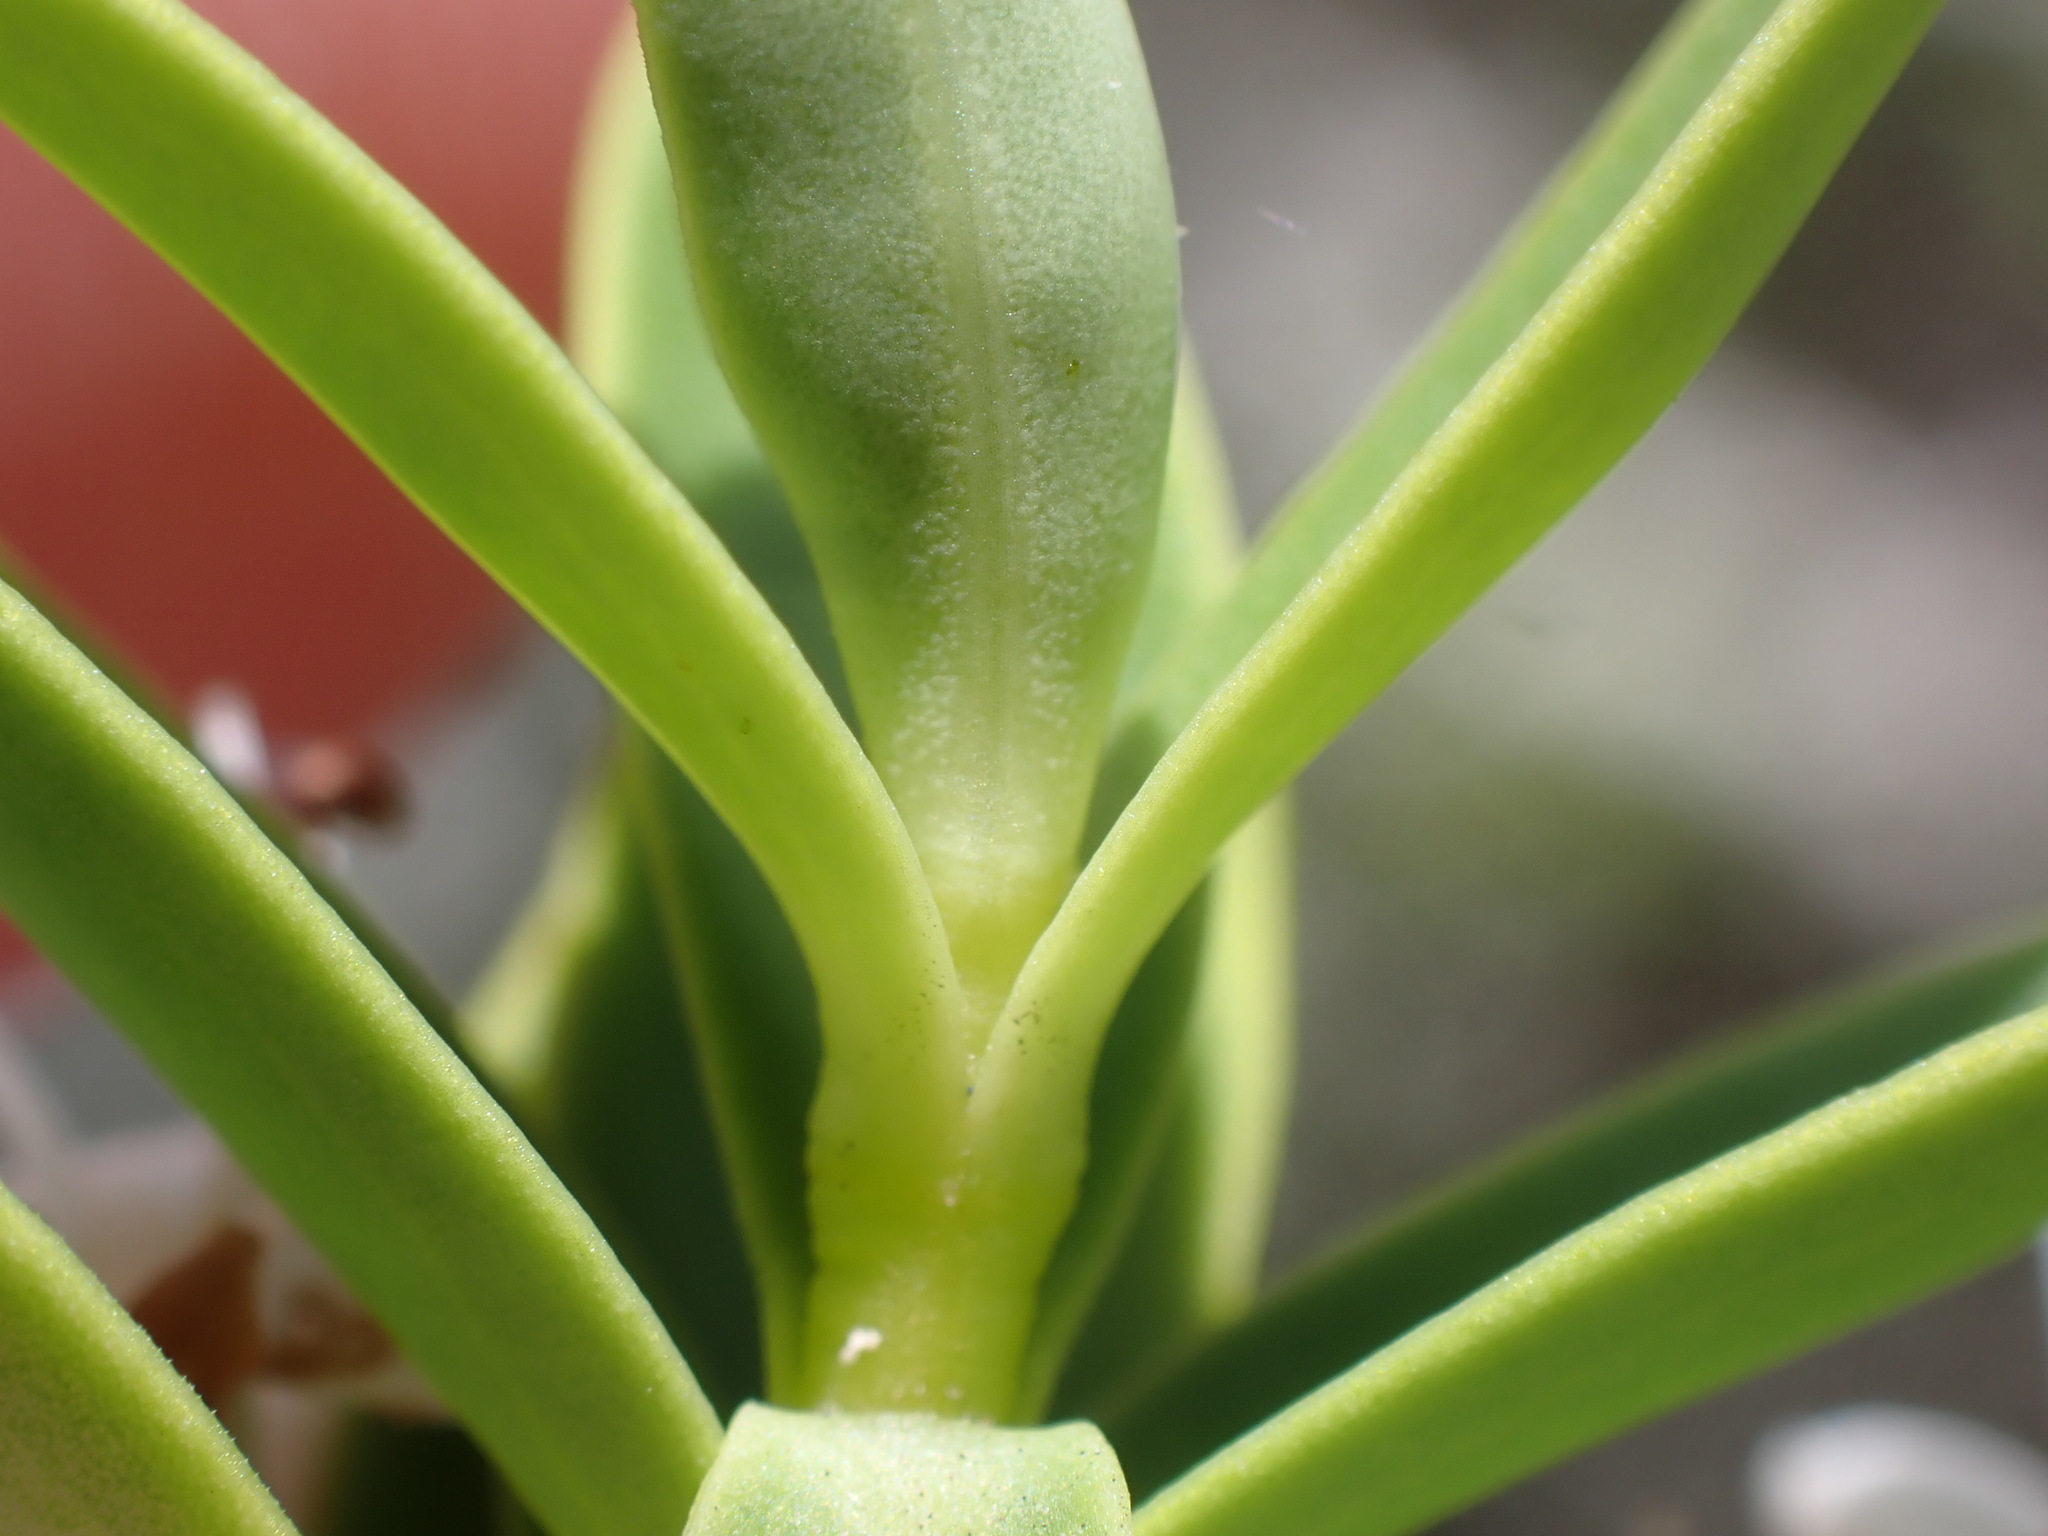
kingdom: Plantae
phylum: Tracheophyta
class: Magnoliopsida
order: Lamiales
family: Plantaginaceae
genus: Veronica
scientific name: Veronica subalpina
